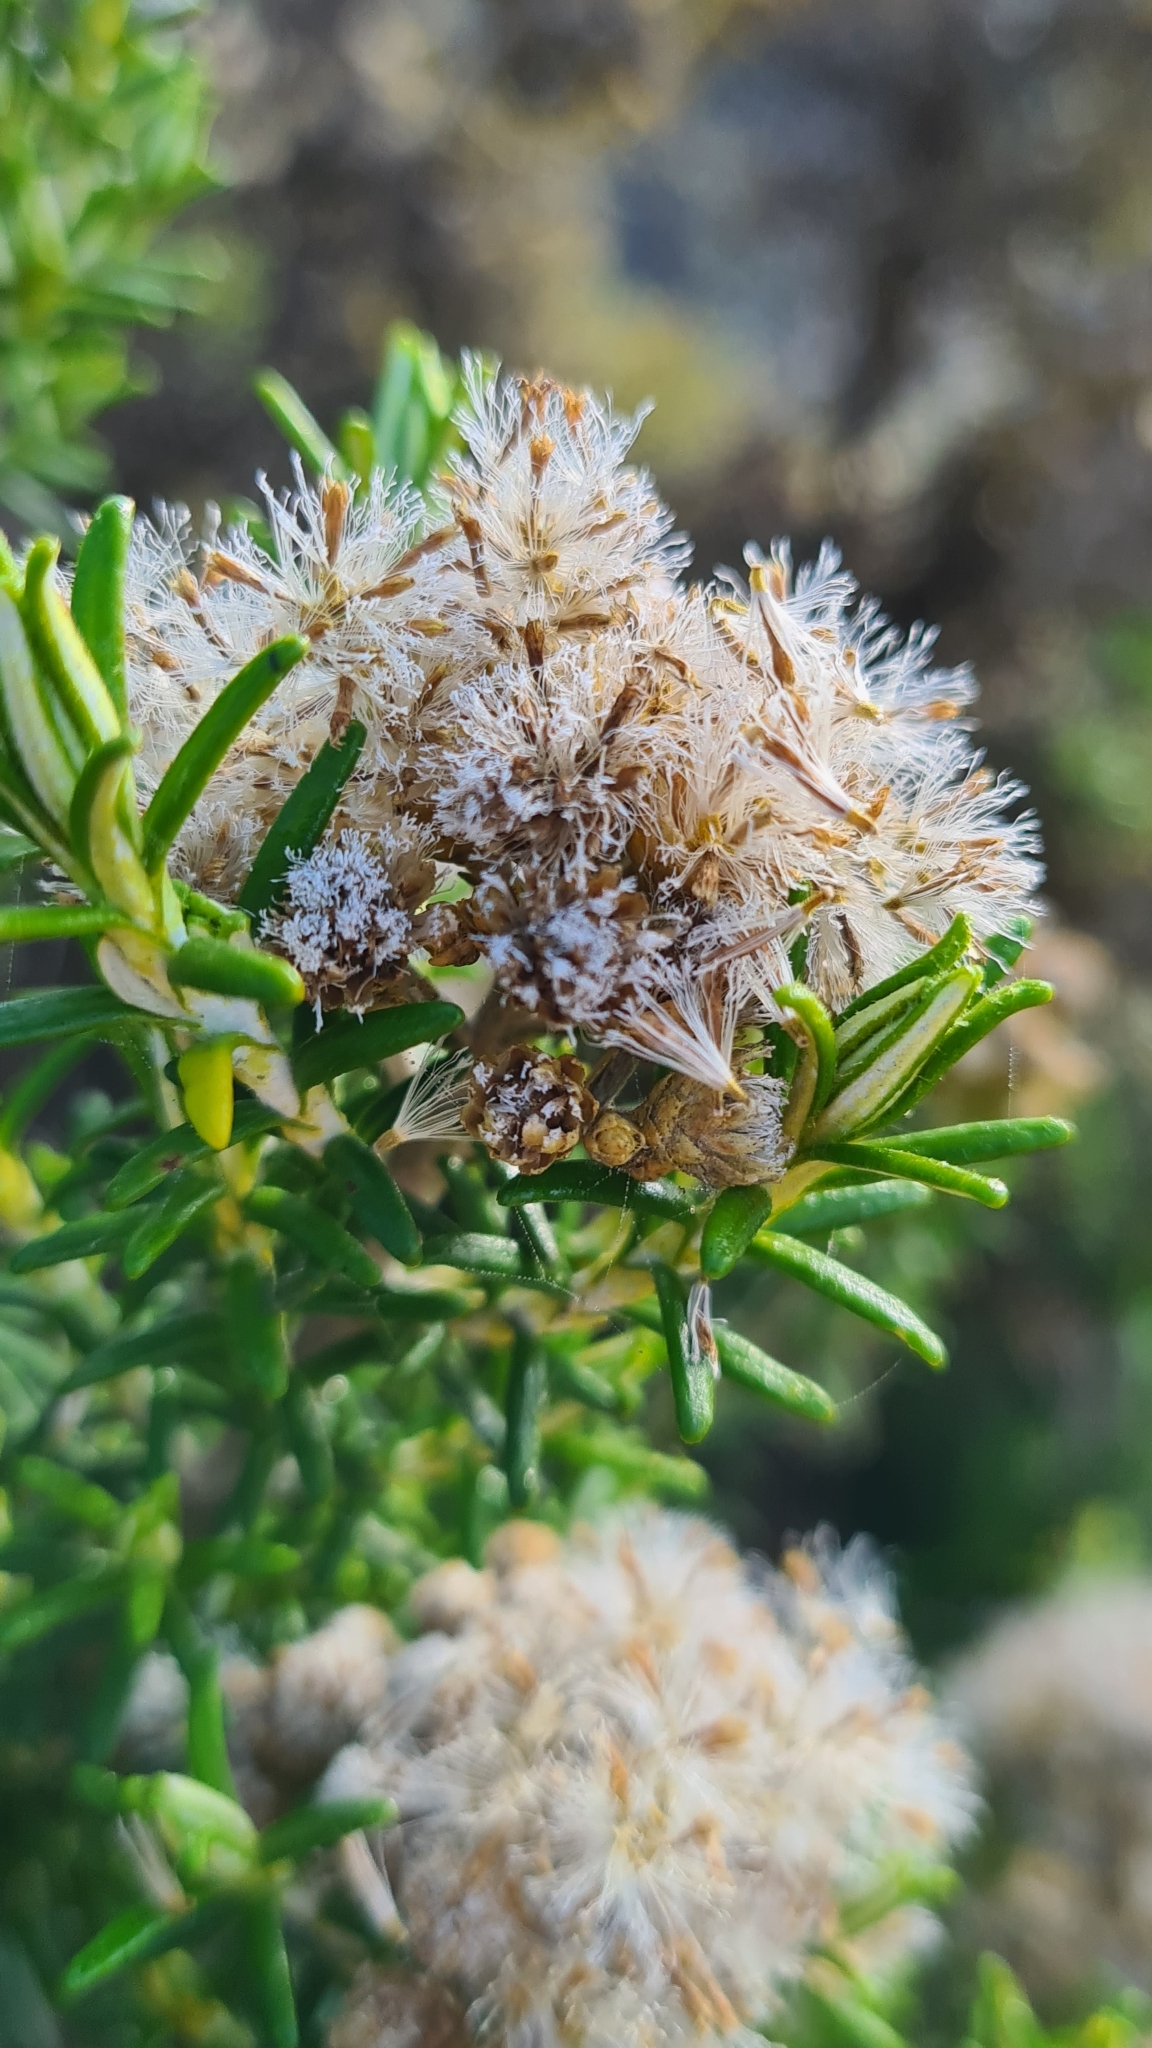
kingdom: Plantae
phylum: Tracheophyta
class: Magnoliopsida
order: Asterales
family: Asteraceae
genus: Ozothamnus
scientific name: Ozothamnus cinereus
